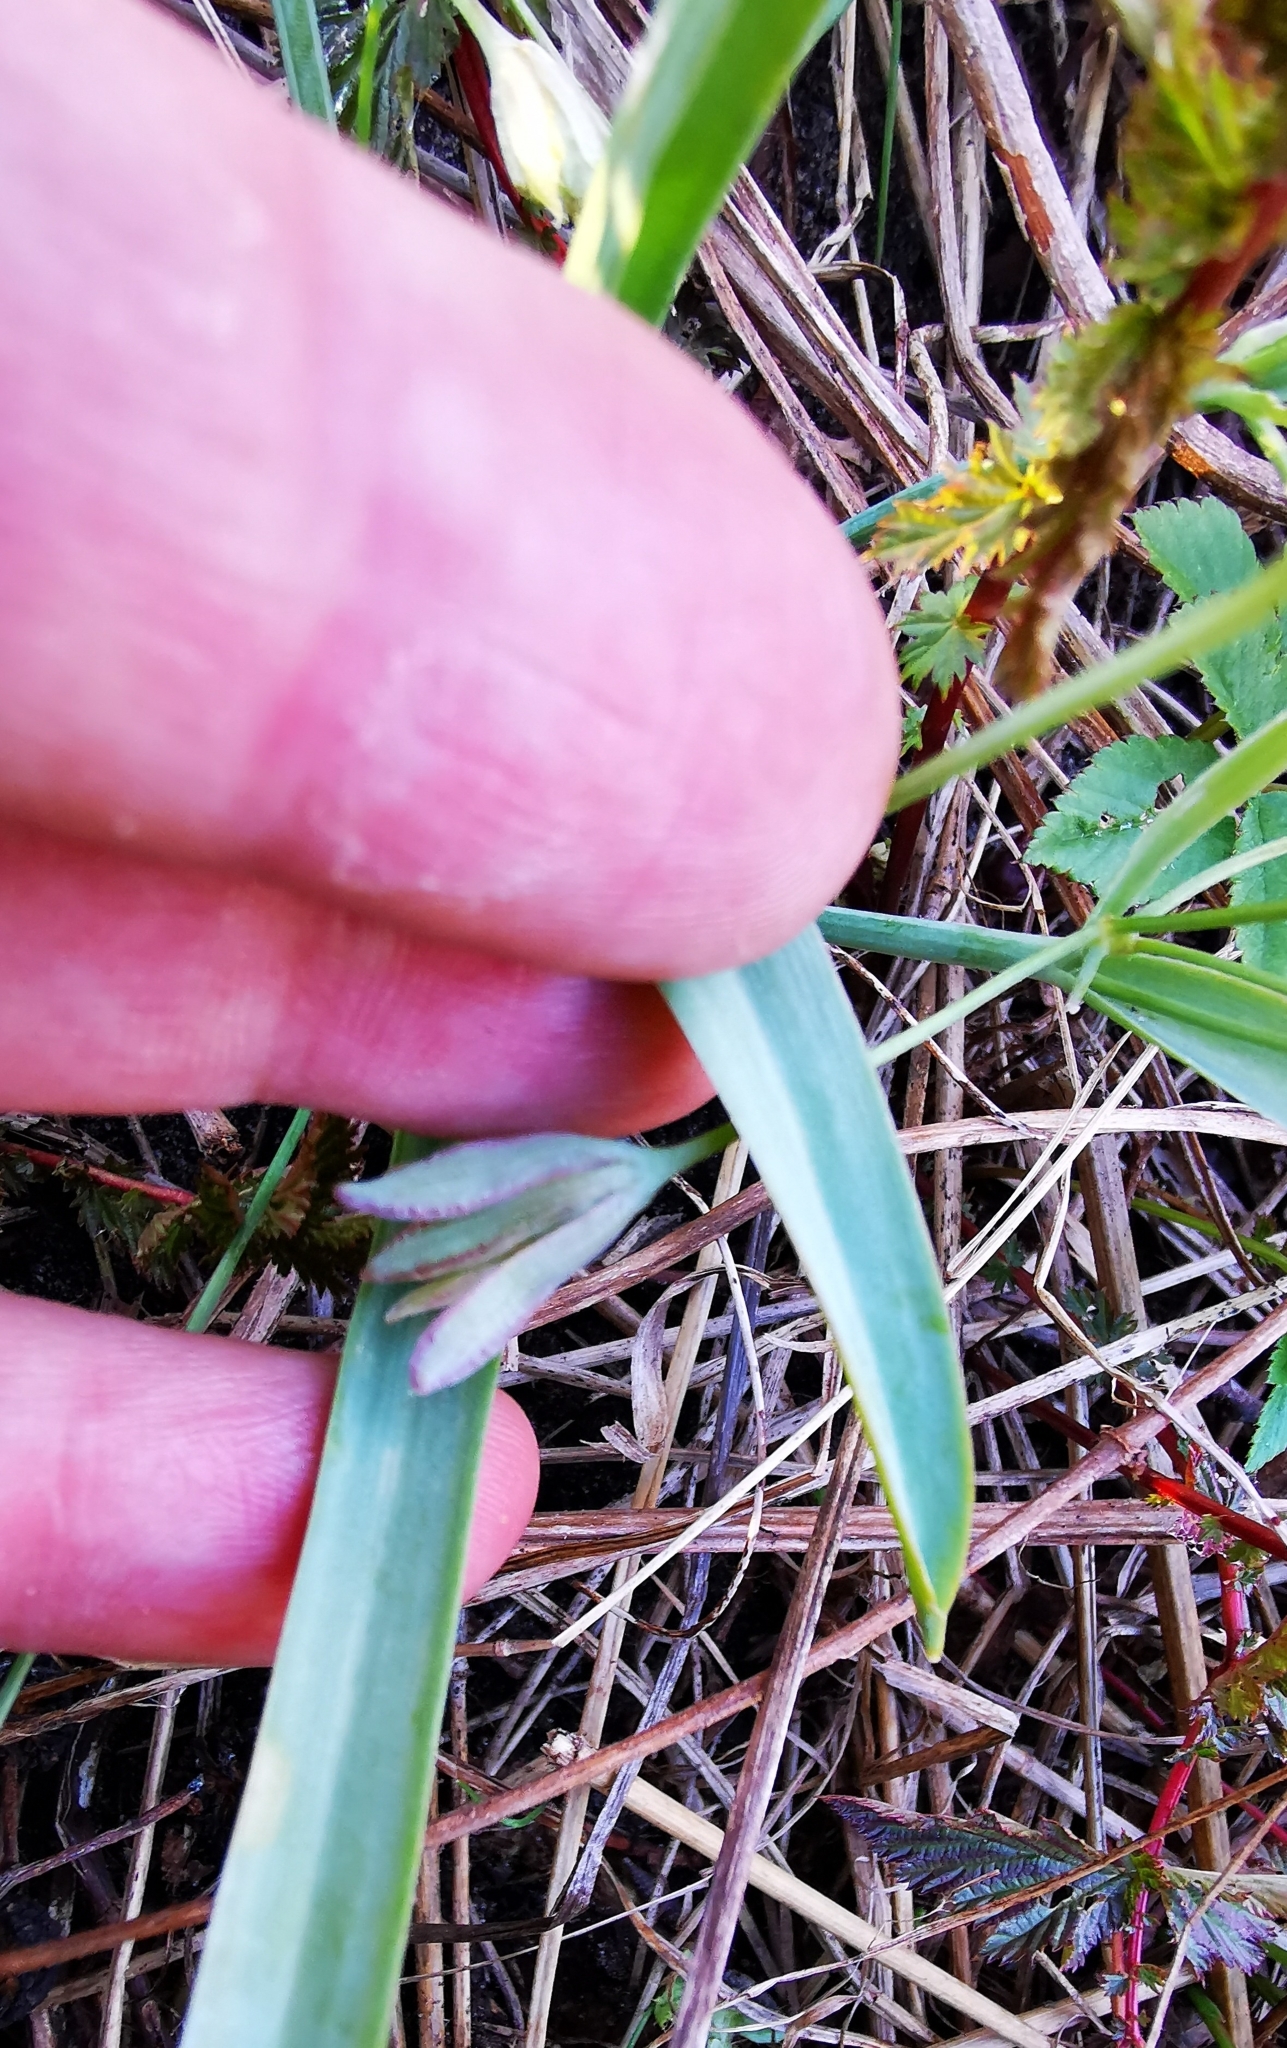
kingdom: Plantae
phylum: Tracheophyta
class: Liliopsida
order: Liliales
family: Liliaceae
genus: Gagea
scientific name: Gagea lutea
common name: Yellow star-of-bethlehem
